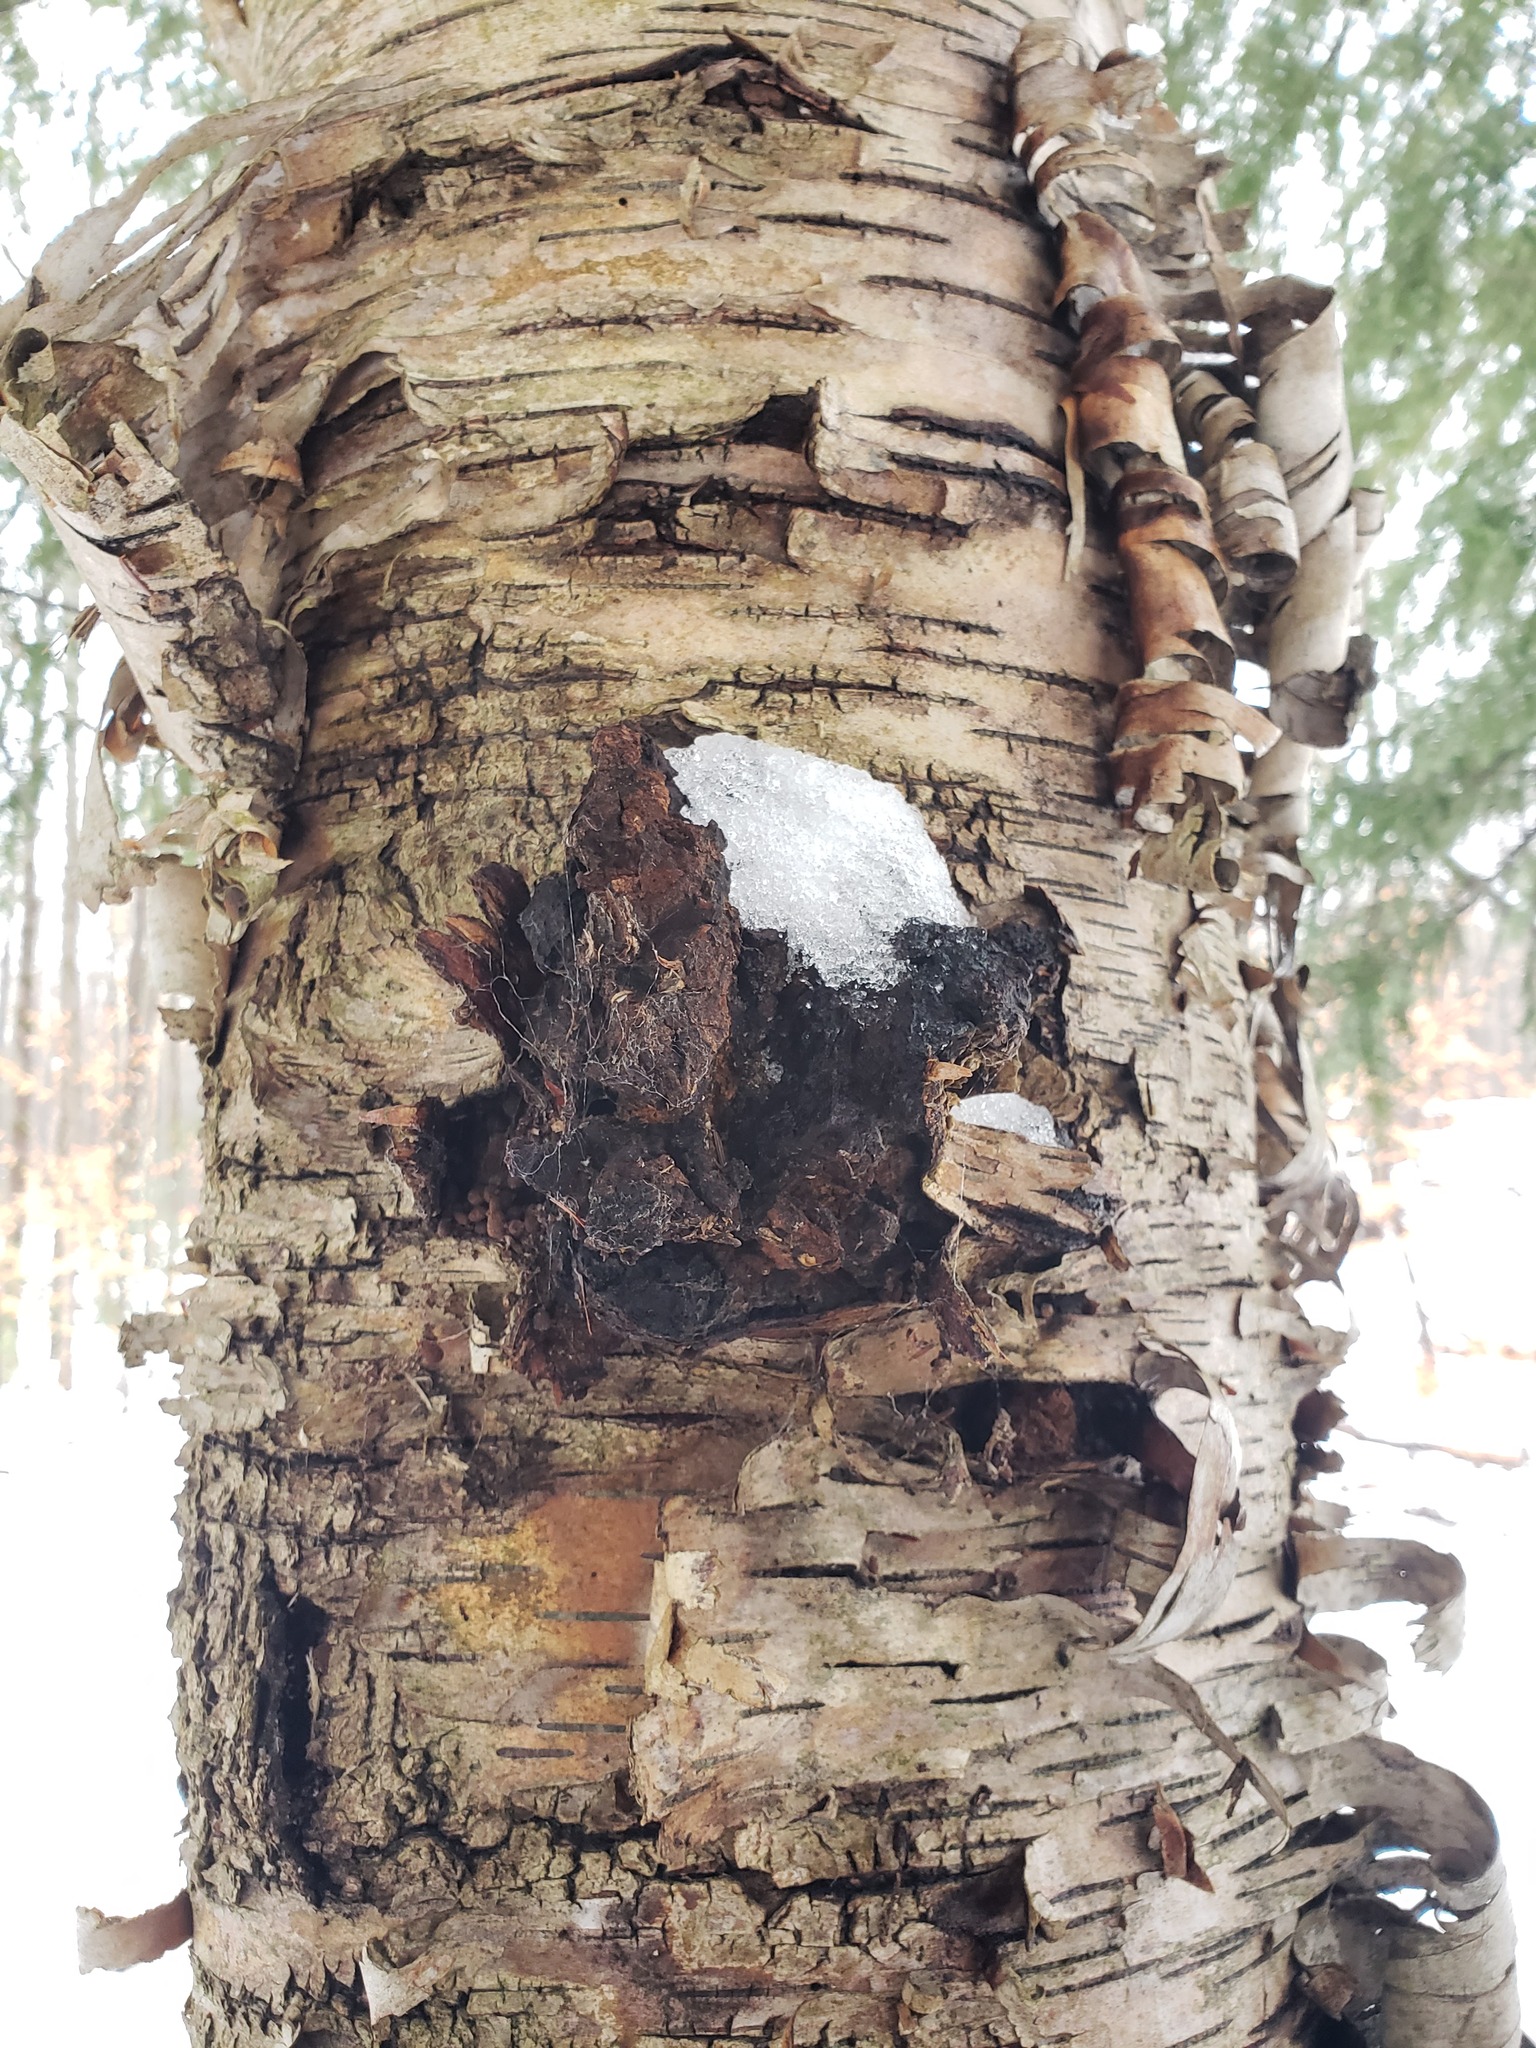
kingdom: Fungi
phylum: Basidiomycota
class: Agaricomycetes
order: Hymenochaetales
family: Hymenochaetaceae
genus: Inonotus
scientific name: Inonotus obliquus
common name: Chaga
